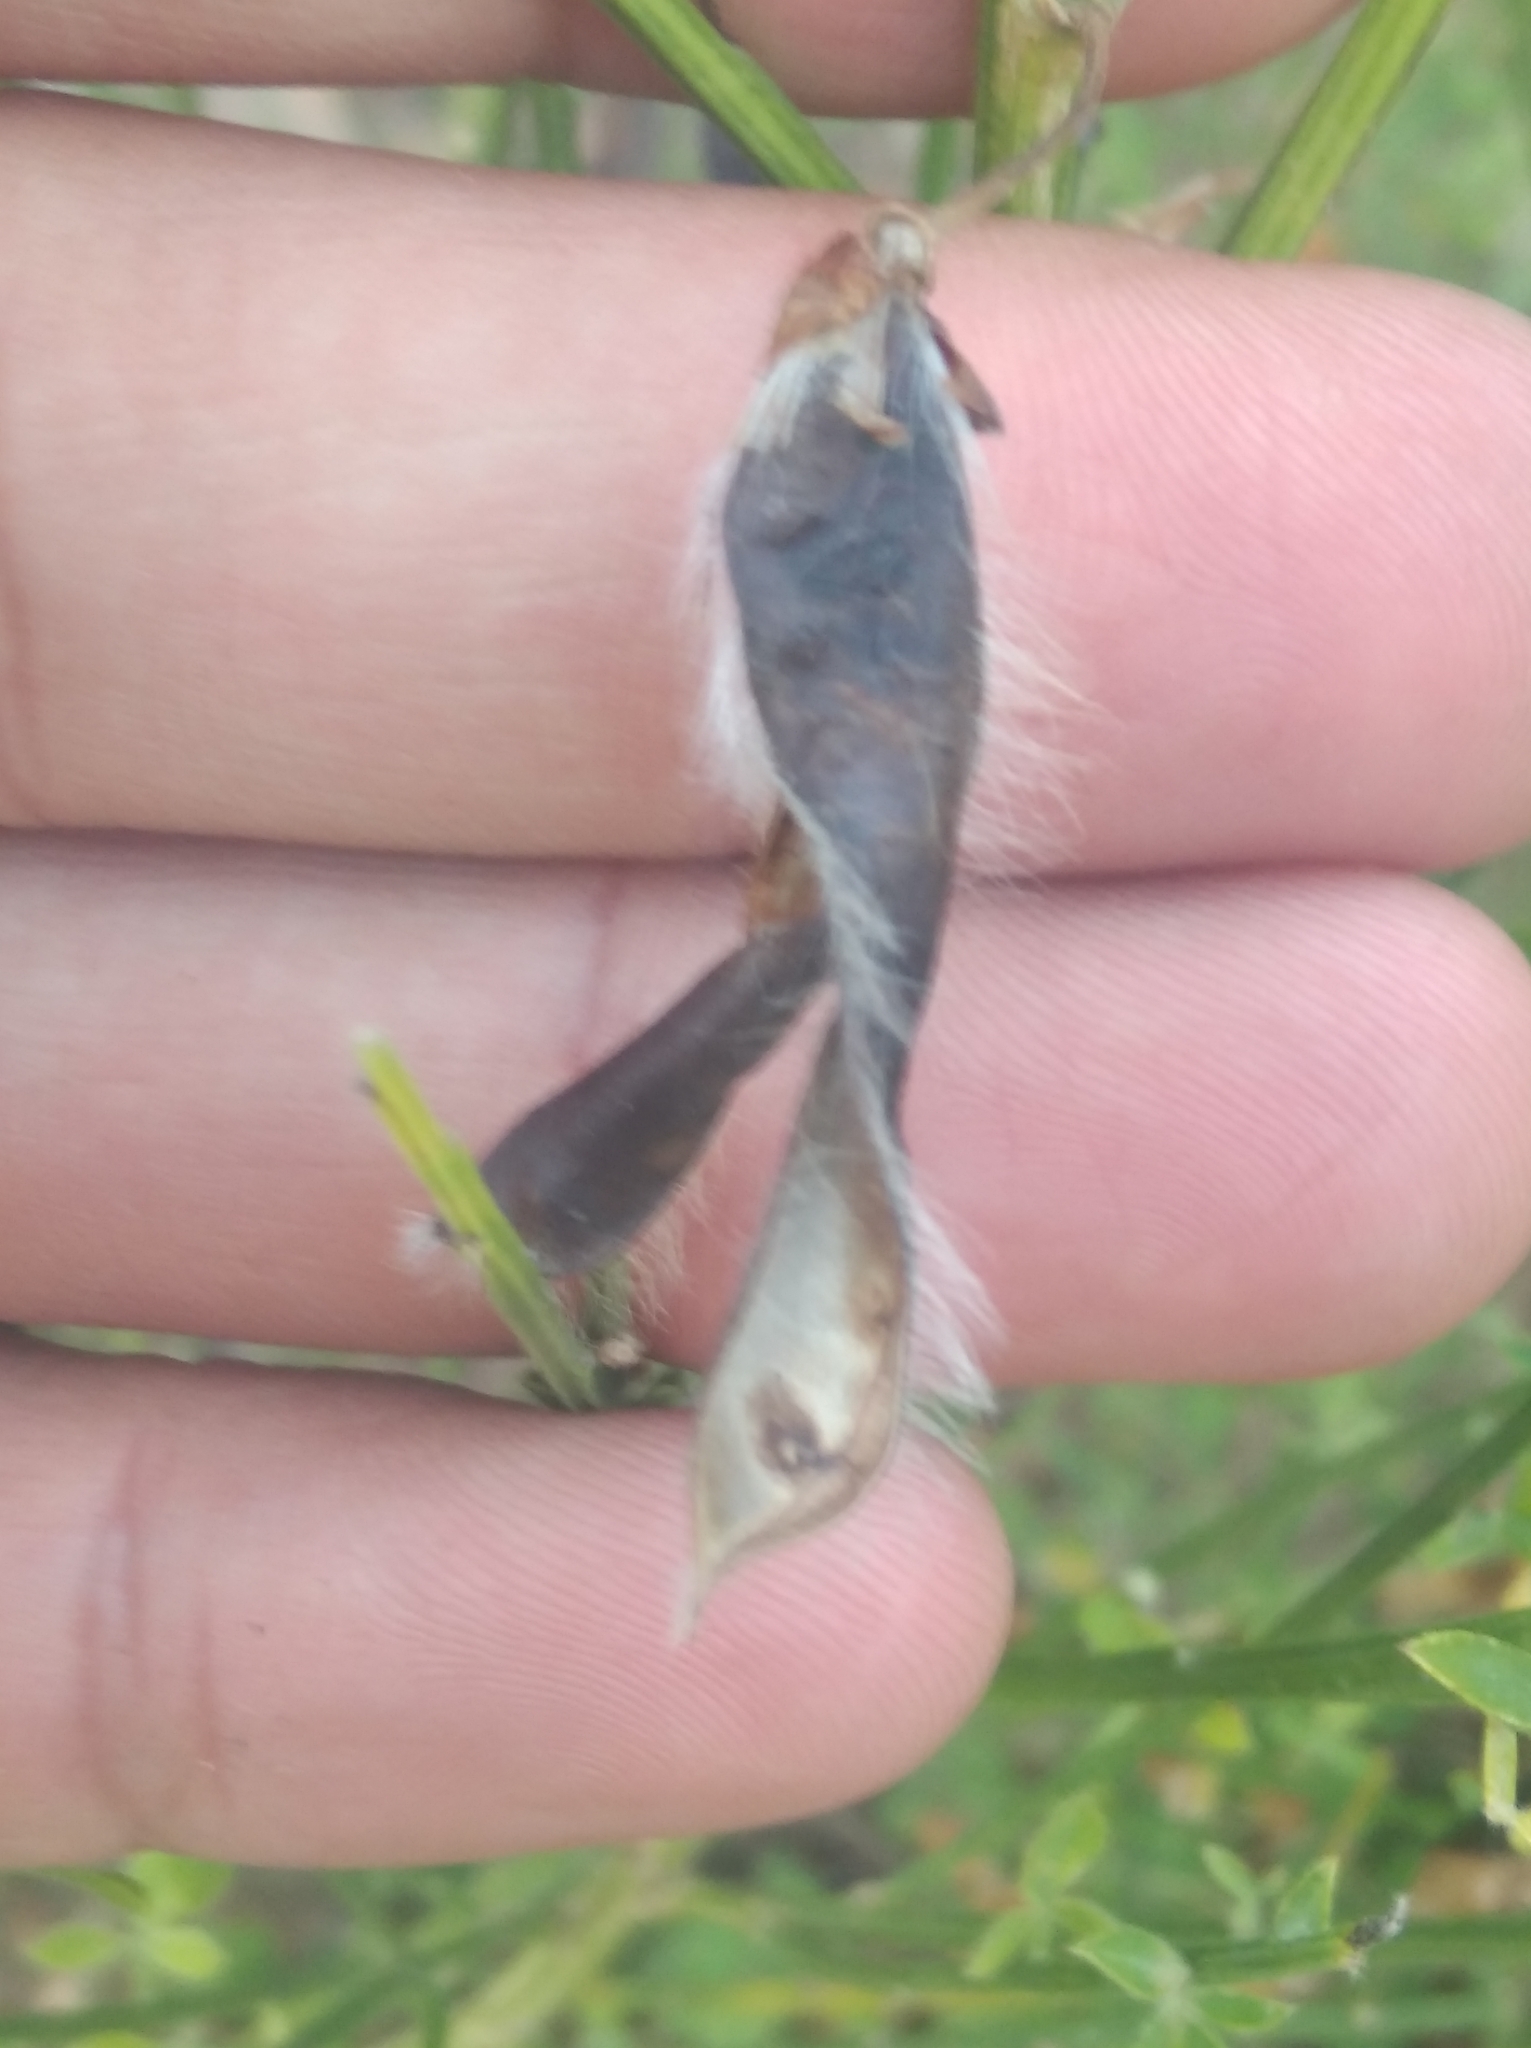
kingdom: Plantae
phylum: Tracheophyta
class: Magnoliopsida
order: Fabales
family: Fabaceae
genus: Cytisus
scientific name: Cytisus scoparius
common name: Scotch broom
